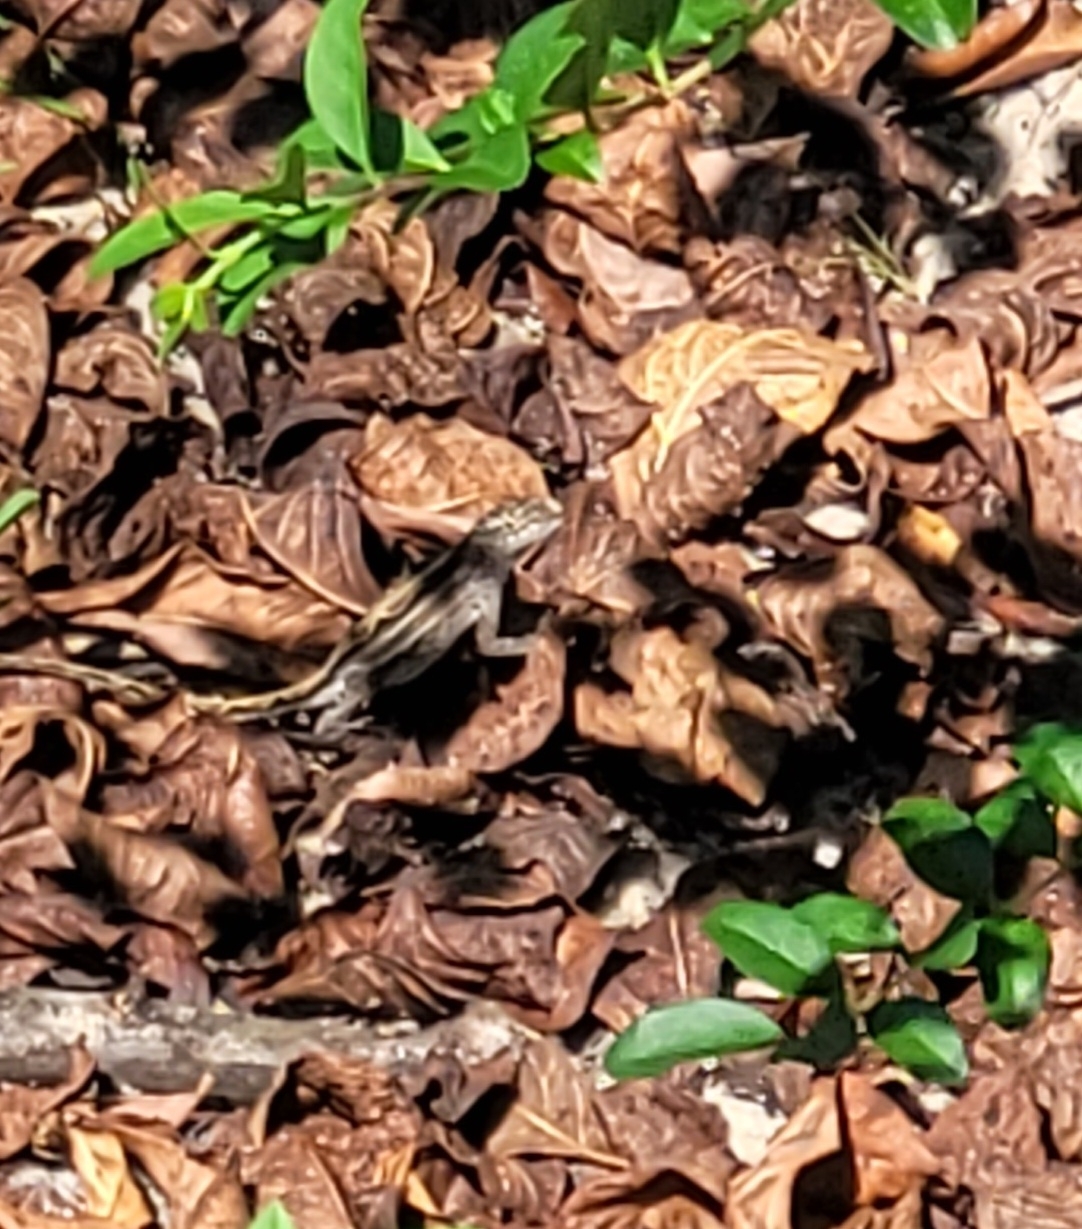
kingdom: Animalia
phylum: Chordata
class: Squamata
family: Dactyloidae
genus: Anolis
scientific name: Anolis sagrei
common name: Brown anole
